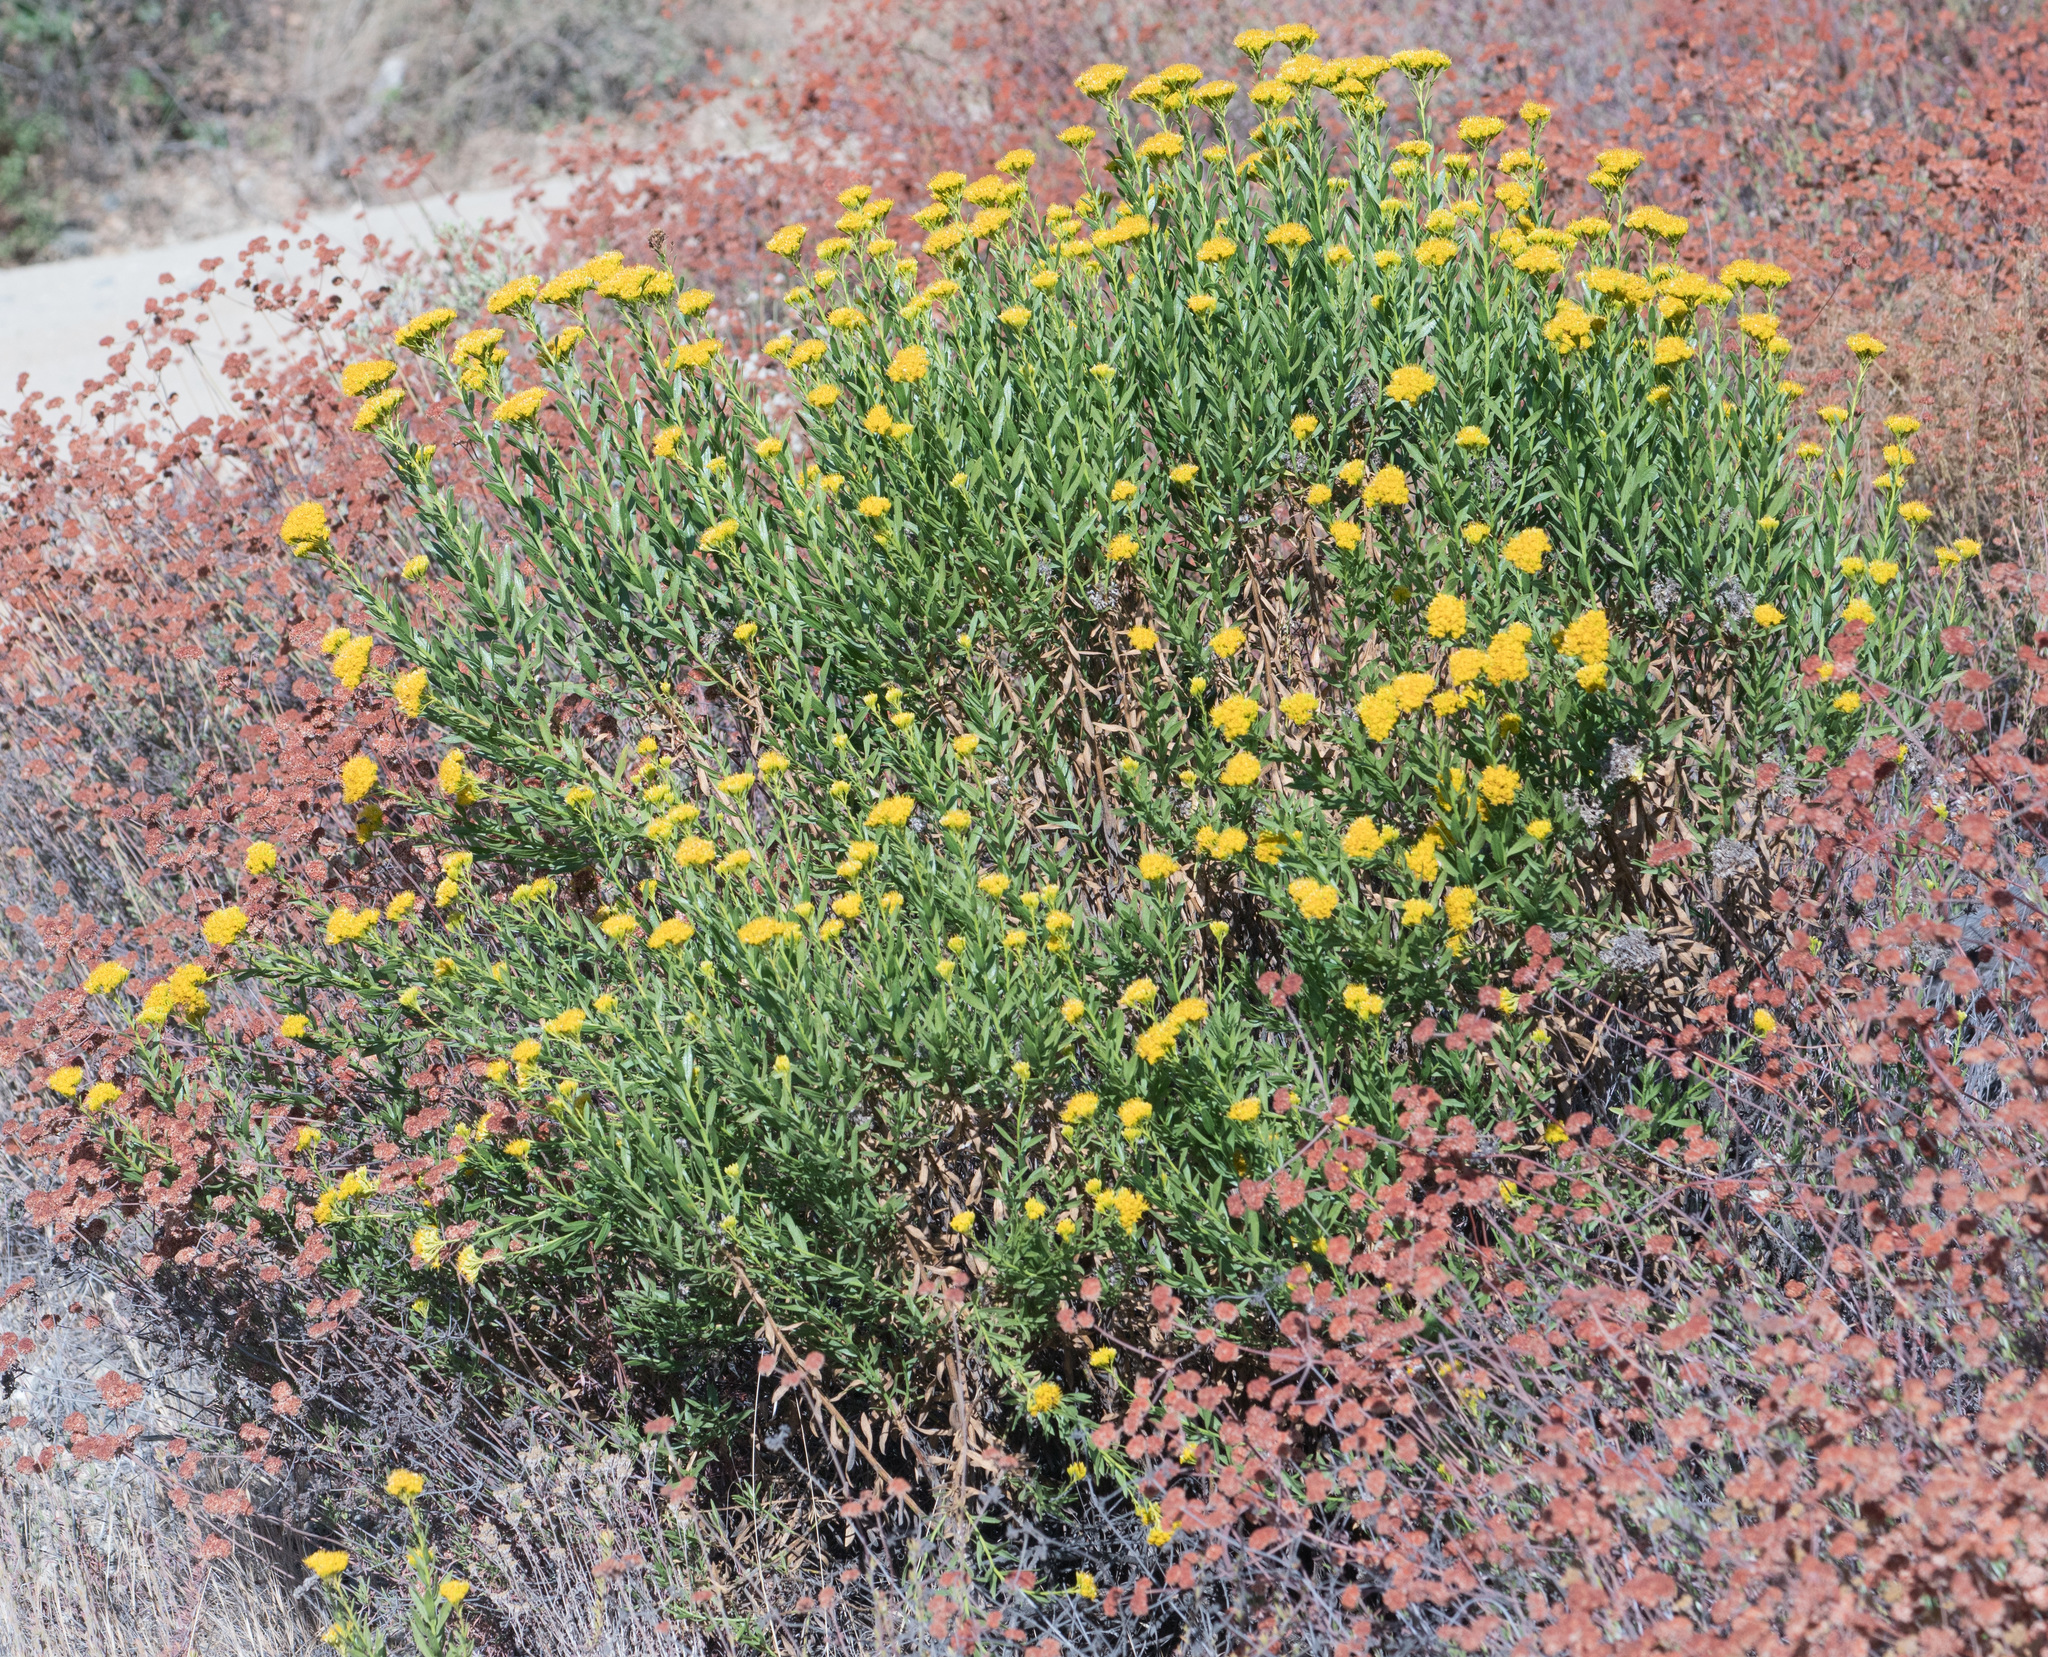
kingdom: Plantae
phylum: Tracheophyta
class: Magnoliopsida
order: Asterales
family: Asteraceae
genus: Ericameria
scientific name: Ericameria parishii
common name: Parish's goldenbush
